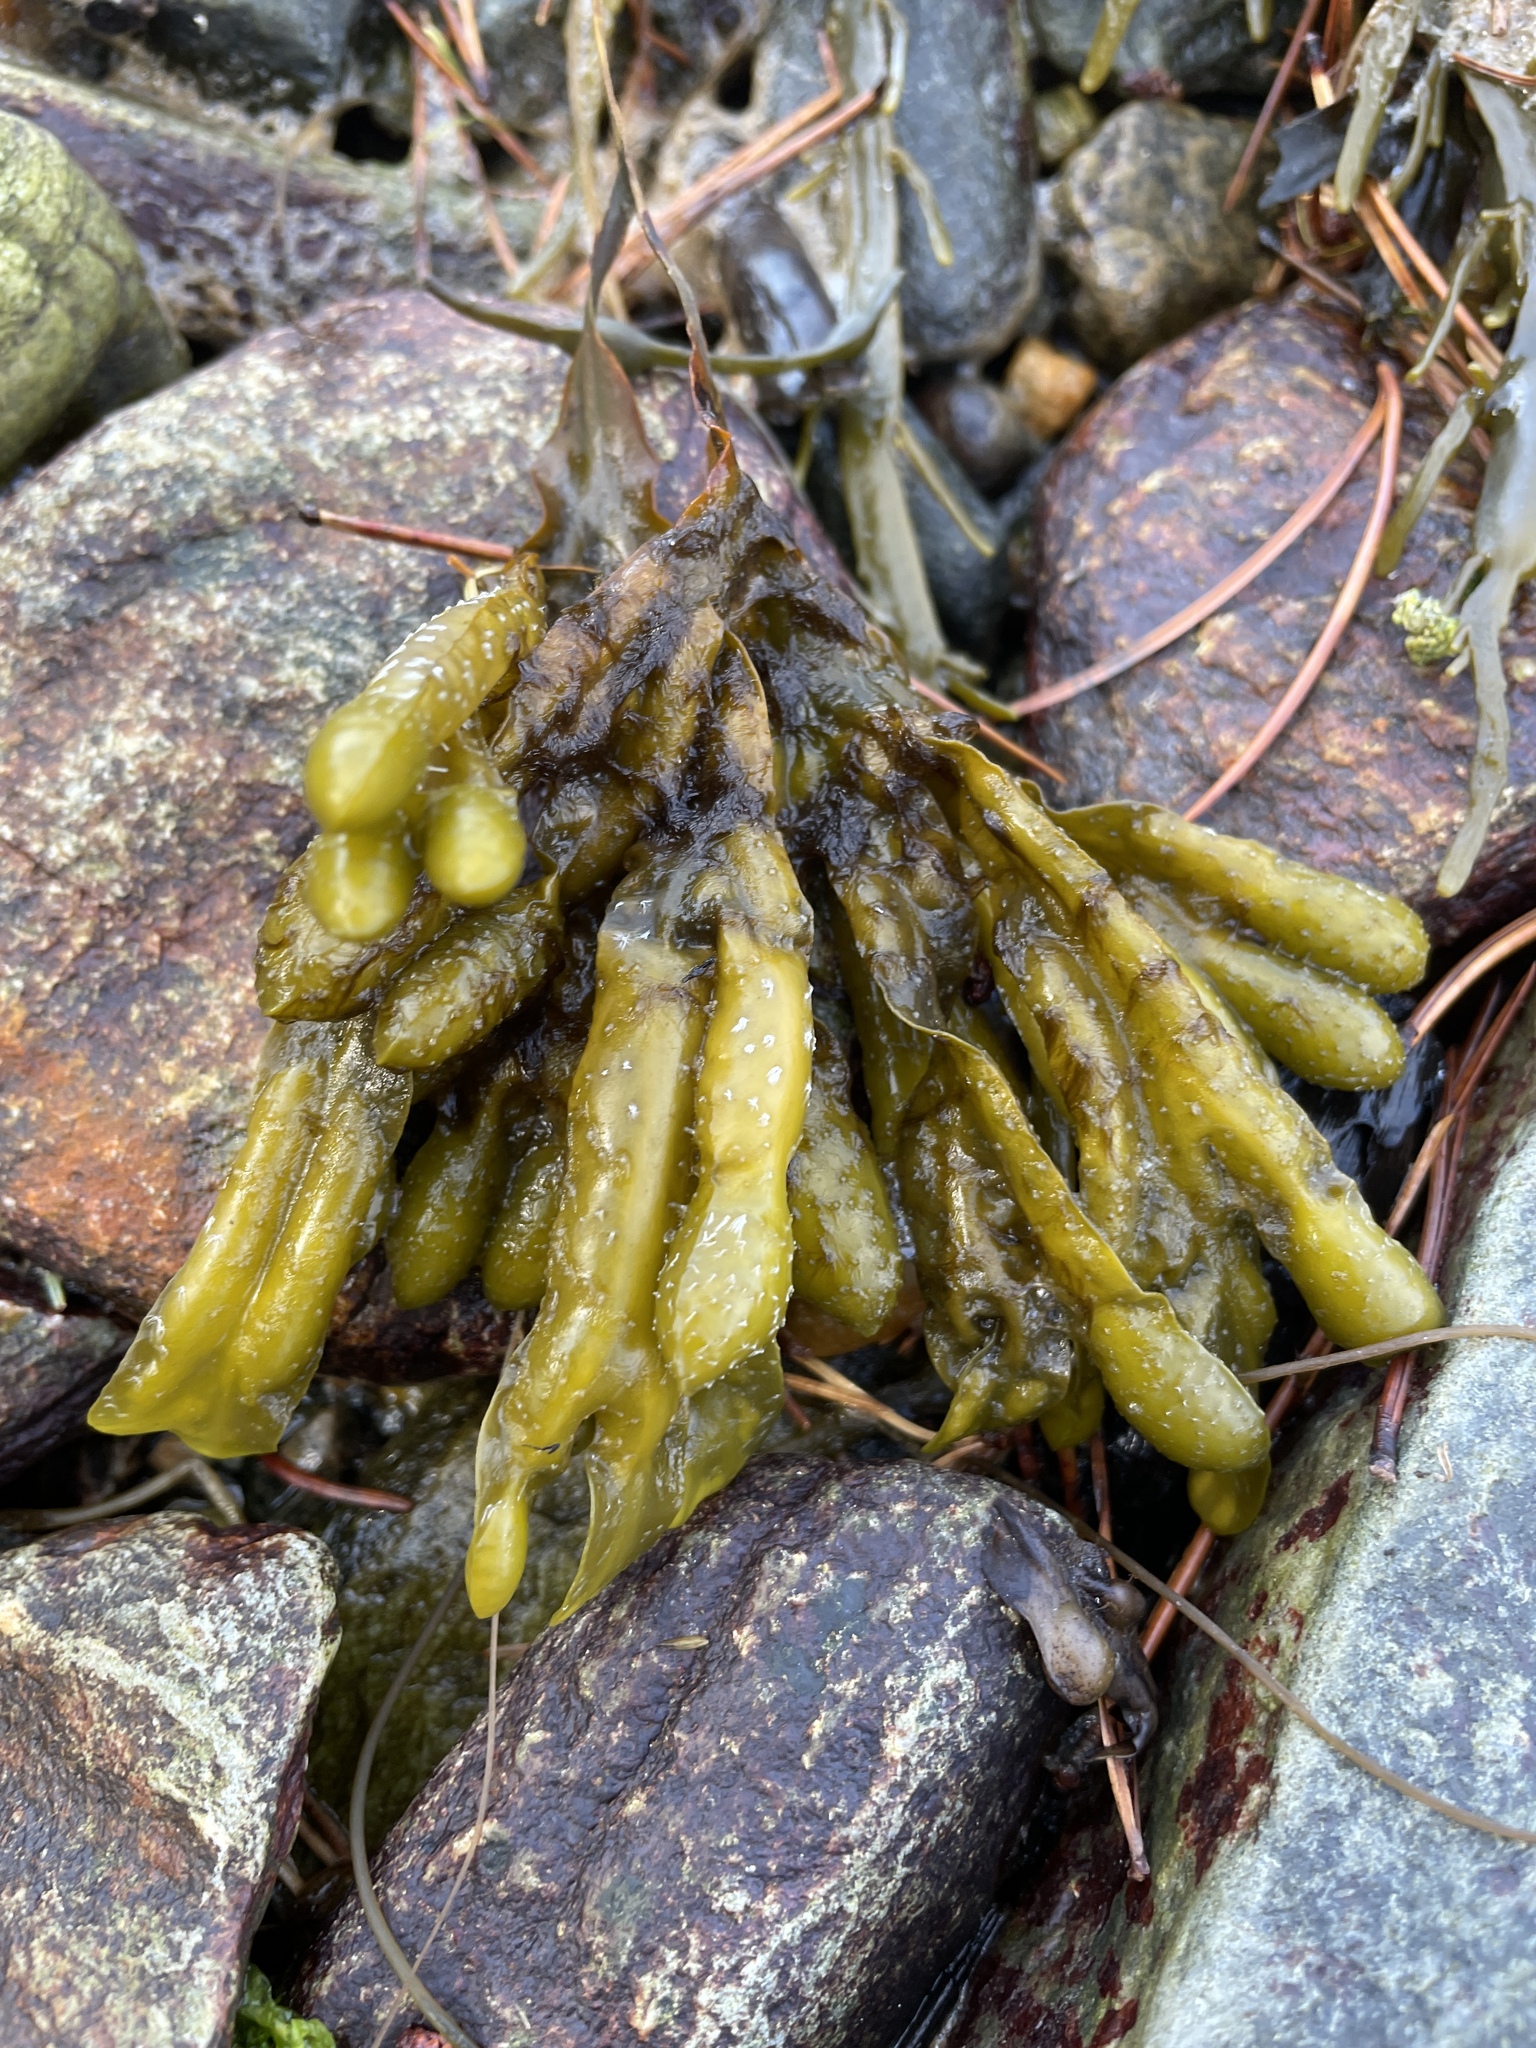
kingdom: Chromista
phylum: Ochrophyta
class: Phaeophyceae
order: Fucales
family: Fucaceae
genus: Fucus
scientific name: Fucus ceranoides
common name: Horned wrack
